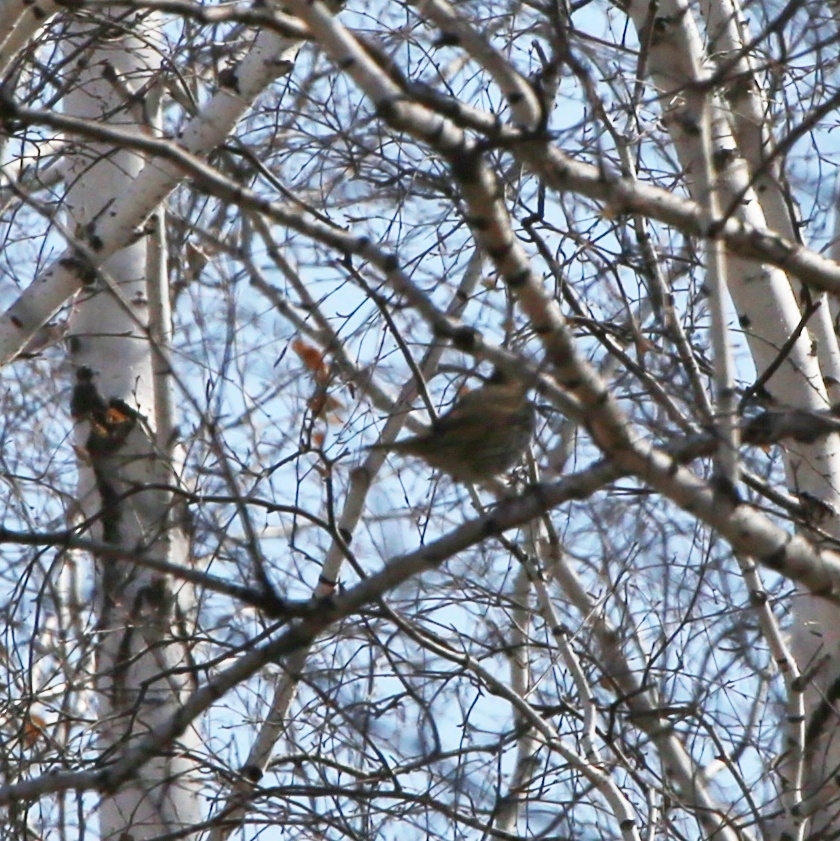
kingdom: Animalia
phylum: Chordata
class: Aves
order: Passeriformes
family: Turdidae
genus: Turdus
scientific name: Turdus philomelos
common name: Song thrush
